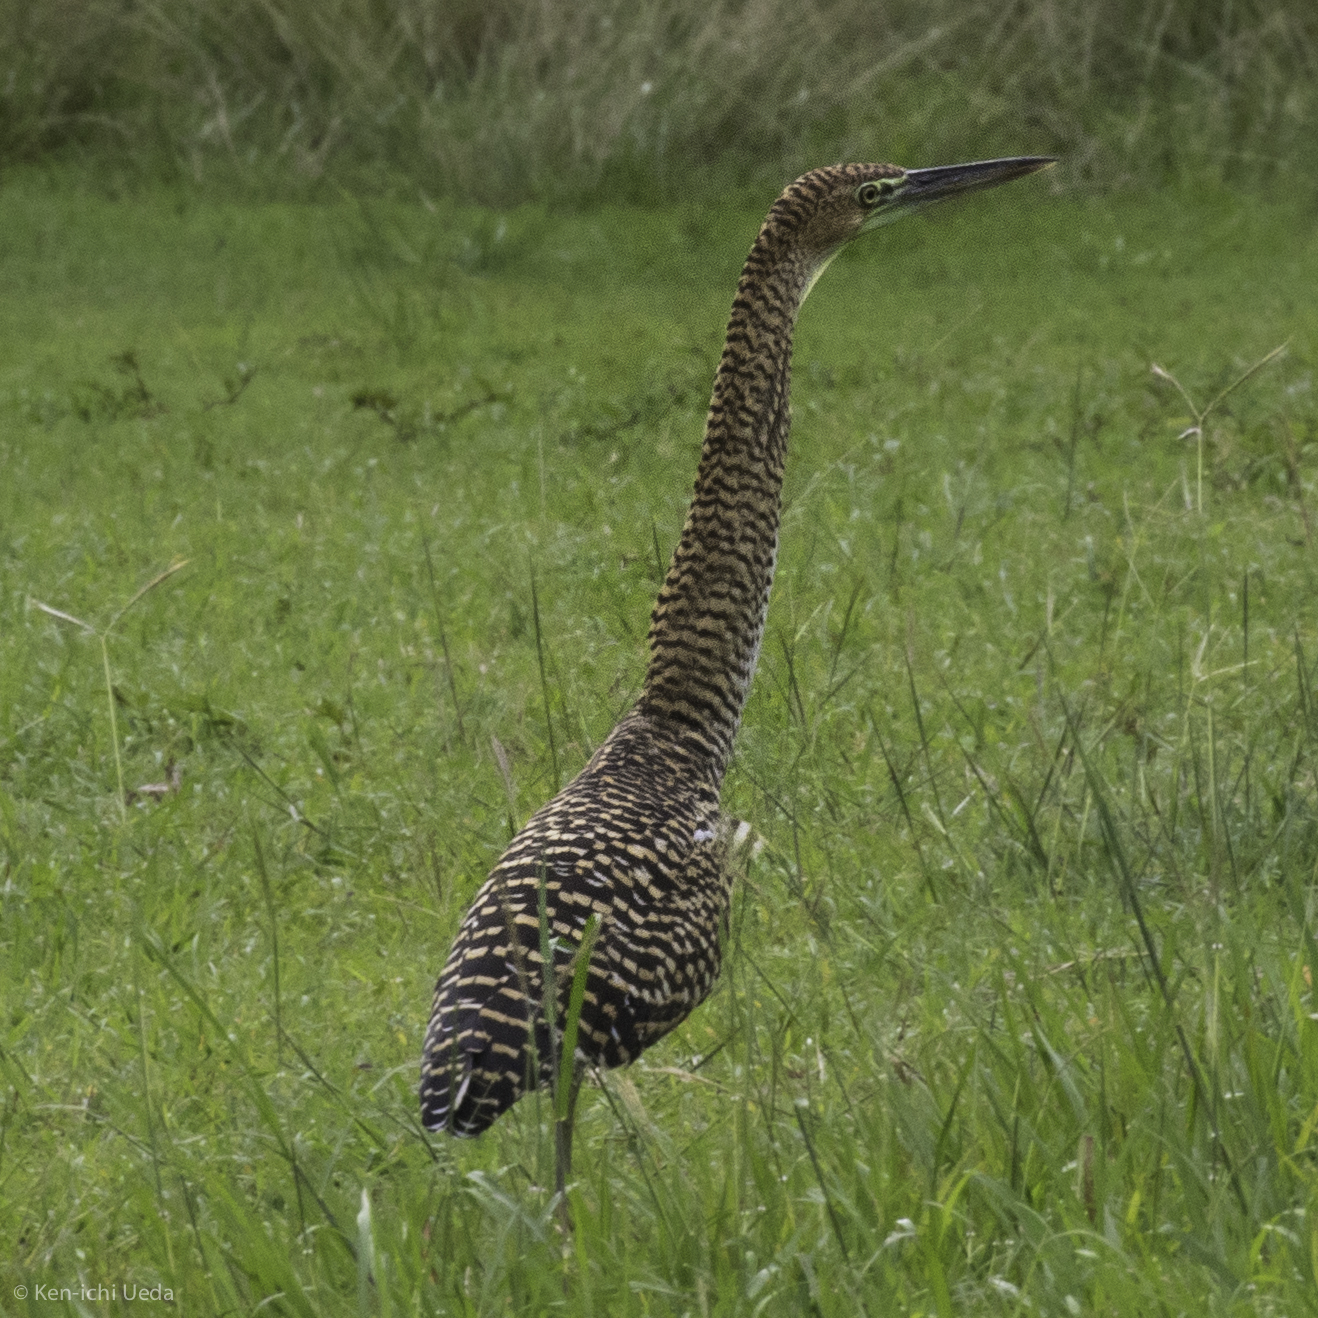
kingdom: Animalia
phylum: Chordata
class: Aves
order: Pelecaniformes
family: Ardeidae
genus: Tigrisoma
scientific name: Tigrisoma mexicanum
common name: Bare-throated tiger-heron
